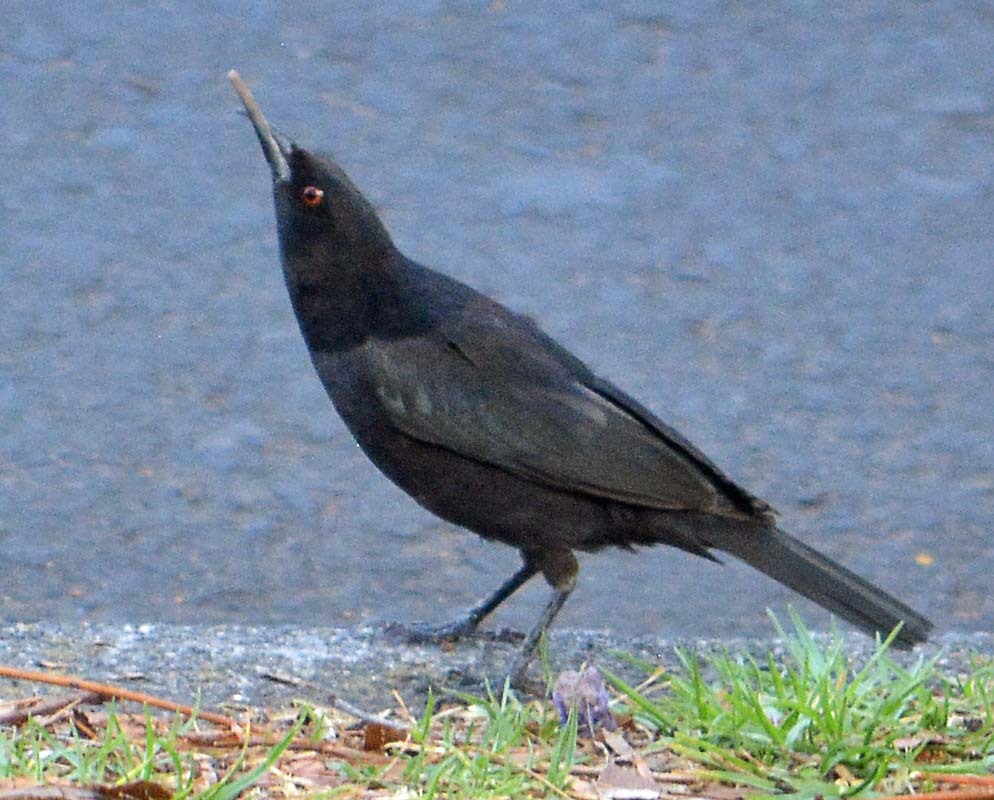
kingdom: Animalia
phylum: Chordata
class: Aves
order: Passeriformes
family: Icteridae
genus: Molothrus
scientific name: Molothrus aeneus
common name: Bronzed cowbird
